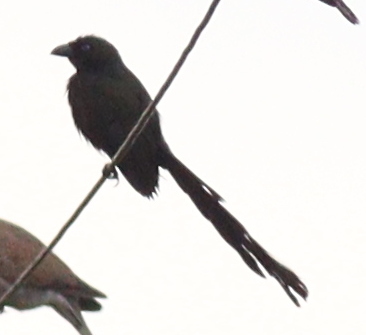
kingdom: Animalia
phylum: Chordata
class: Aves
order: Passeriformes
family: Corvidae
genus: Crypsirina
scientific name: Crypsirina temia
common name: Racket-tailed treepie
